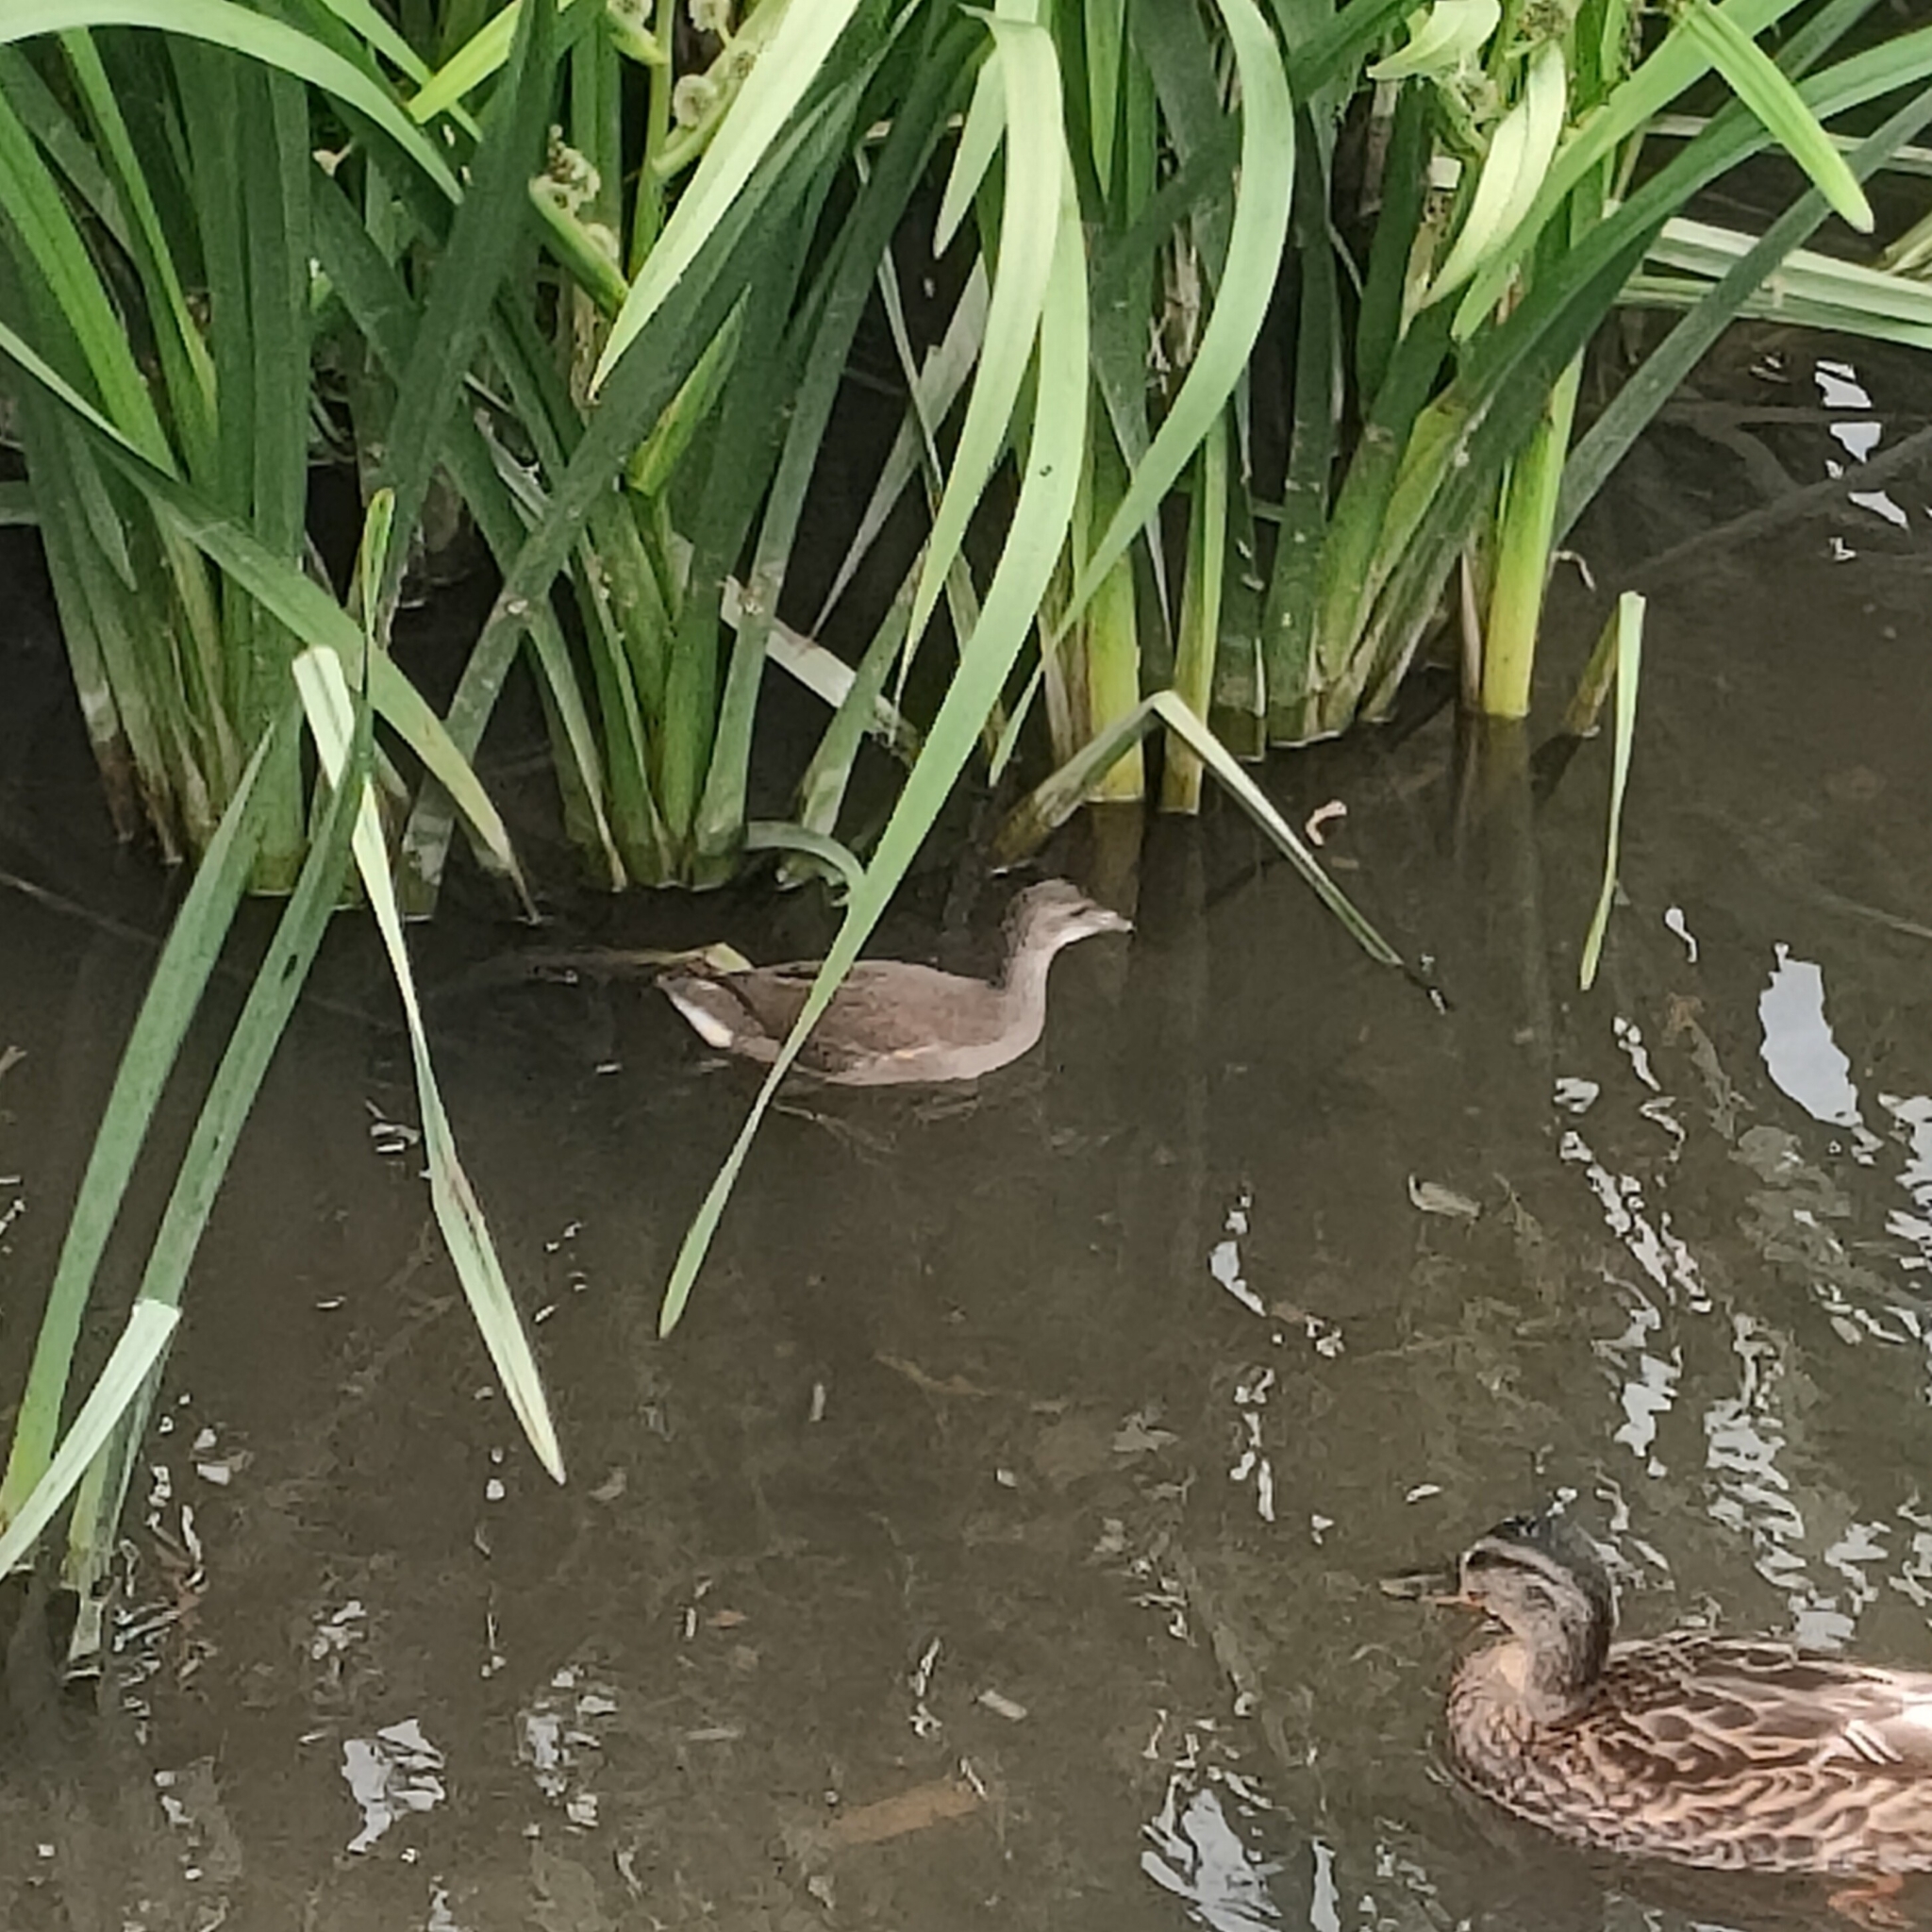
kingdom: Animalia
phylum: Chordata
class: Aves
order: Gruiformes
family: Rallidae
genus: Gallinula
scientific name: Gallinula chloropus
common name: Common moorhen
